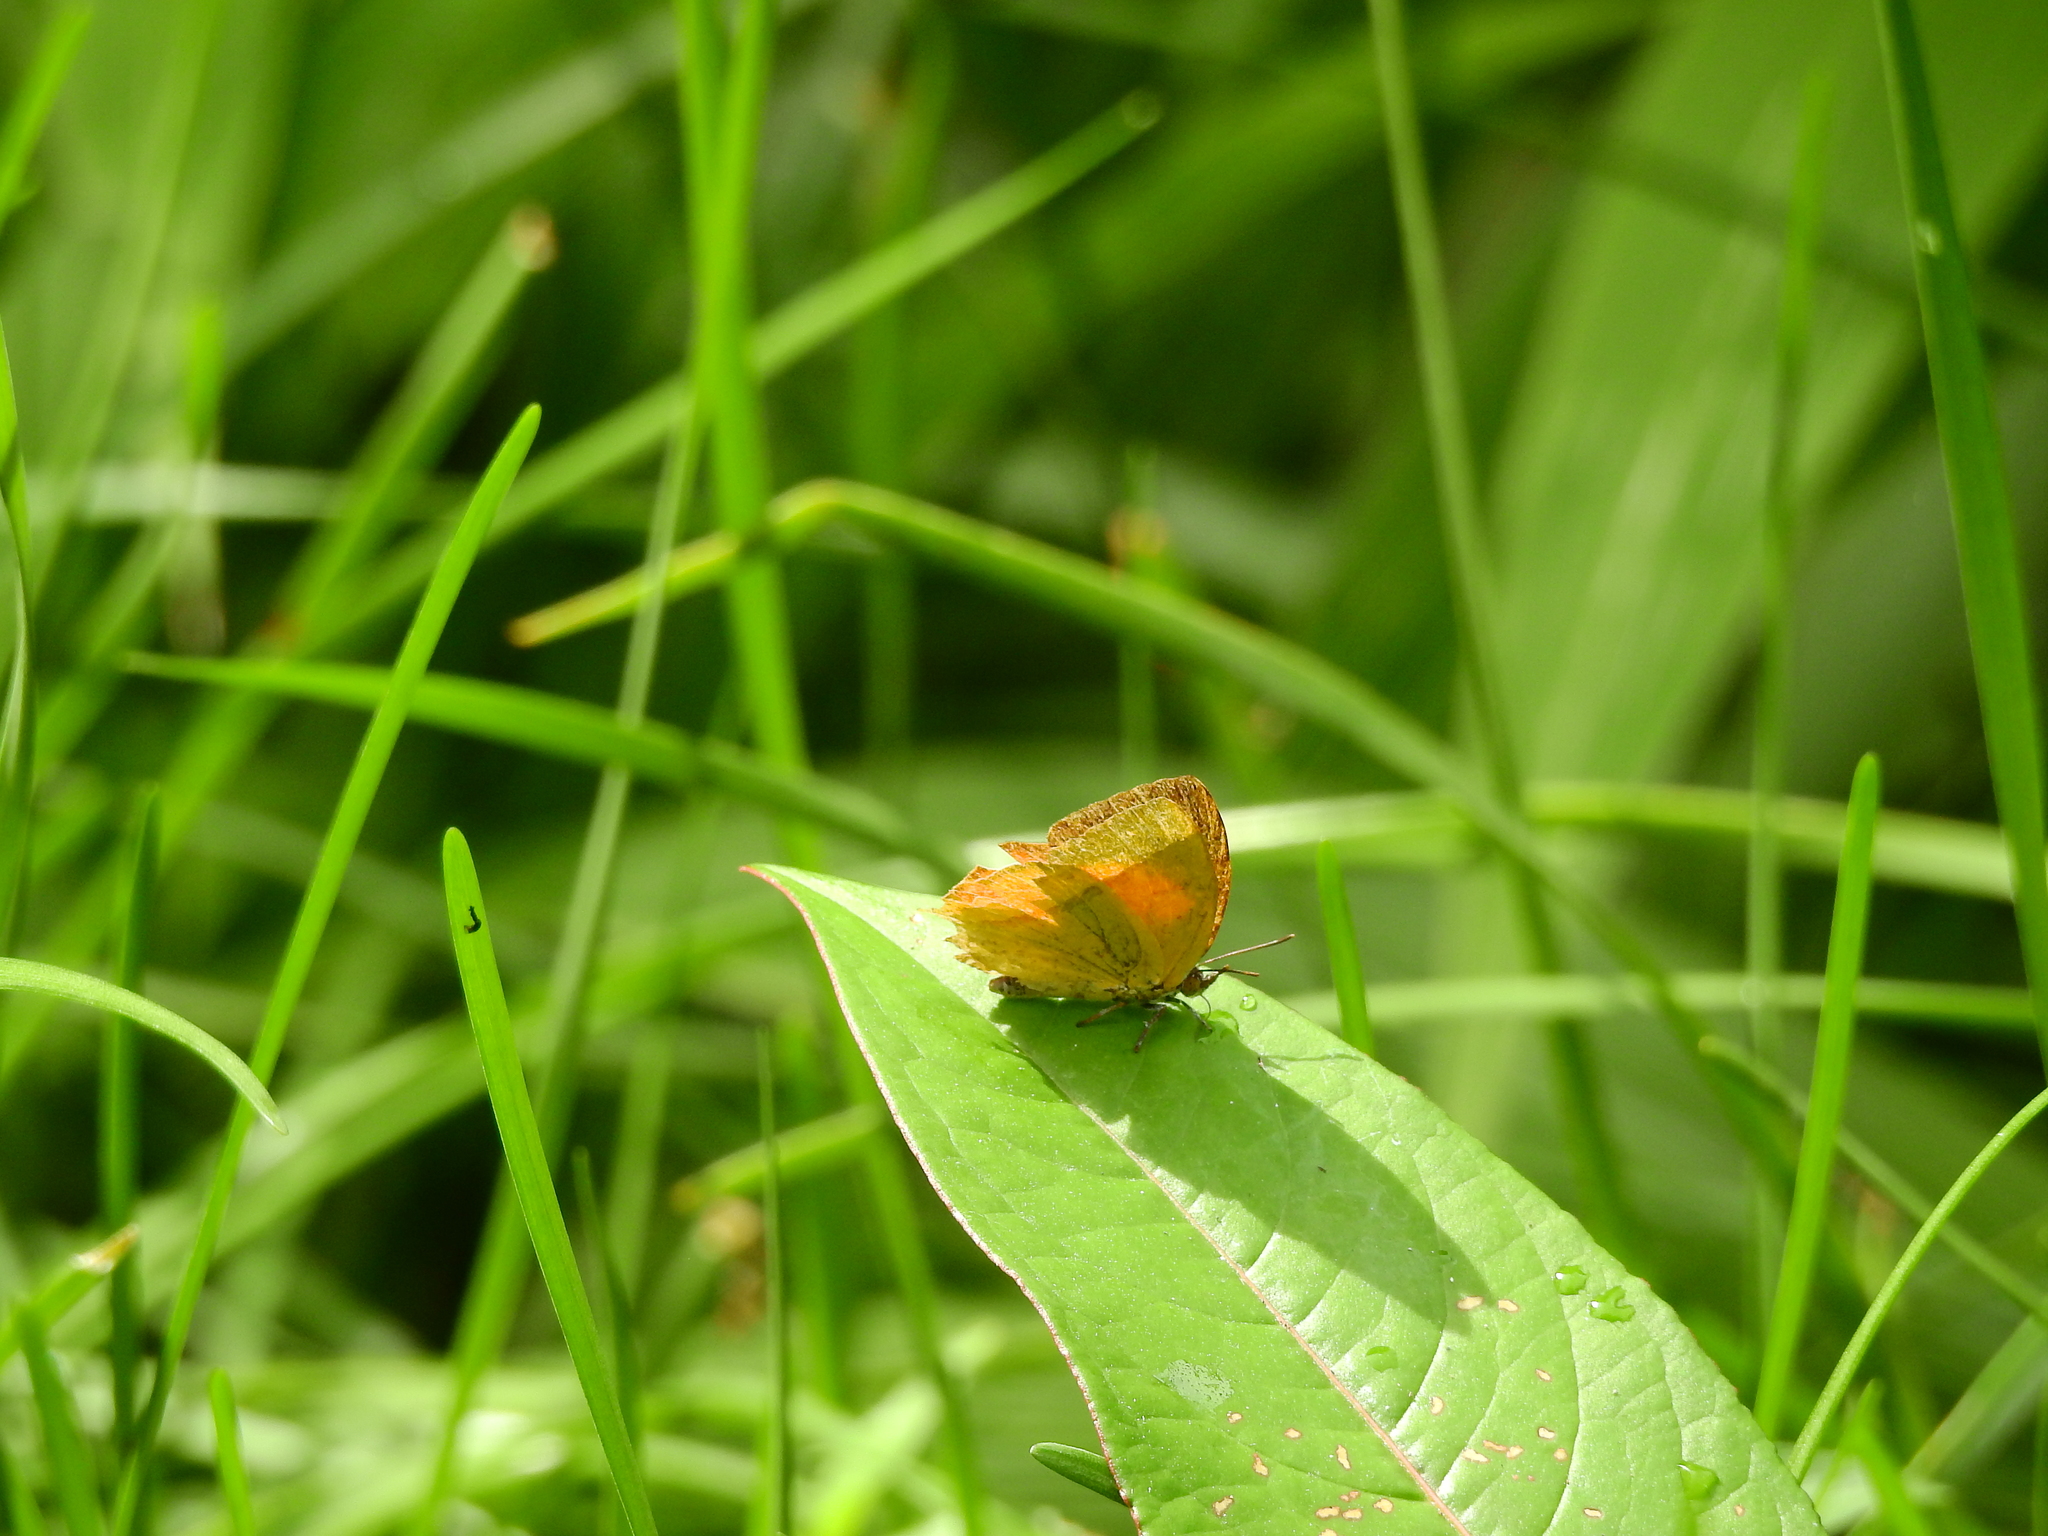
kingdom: Animalia
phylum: Arthropoda
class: Insecta
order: Lepidoptera
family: Lycaenidae
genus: Loxura
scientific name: Loxura atymnus
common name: Common yamfly
